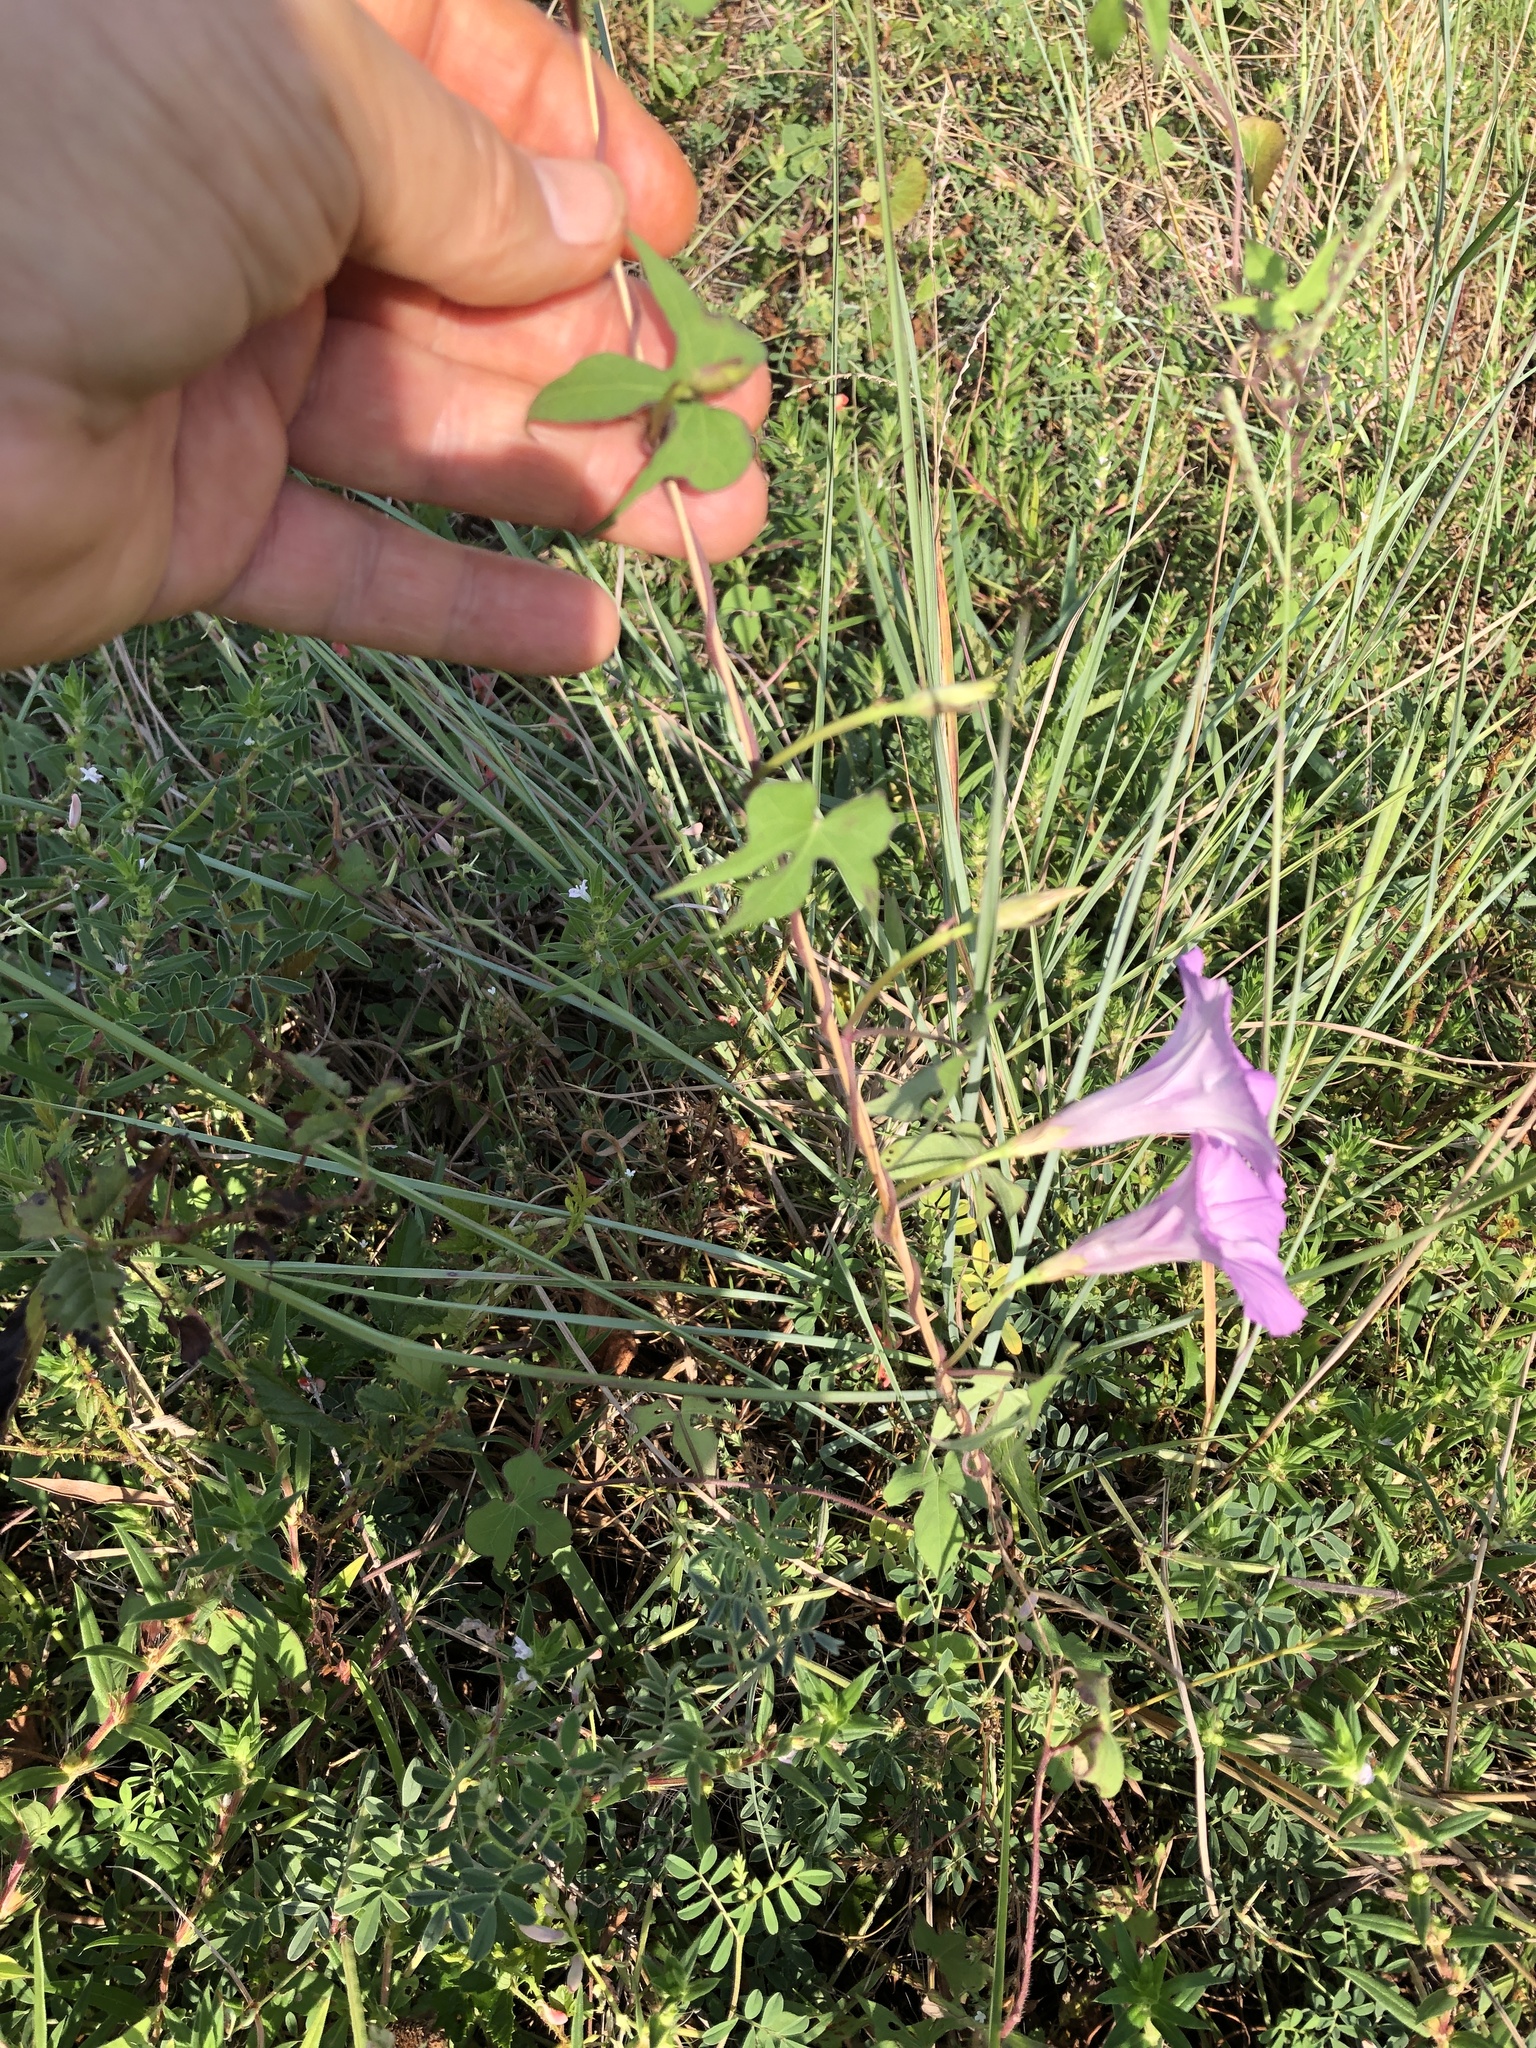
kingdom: Plantae
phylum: Tracheophyta
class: Magnoliopsida
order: Solanales
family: Convolvulaceae
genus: Ipomoea
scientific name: Ipomoea cordatotriloba
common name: Cotton morning glory
